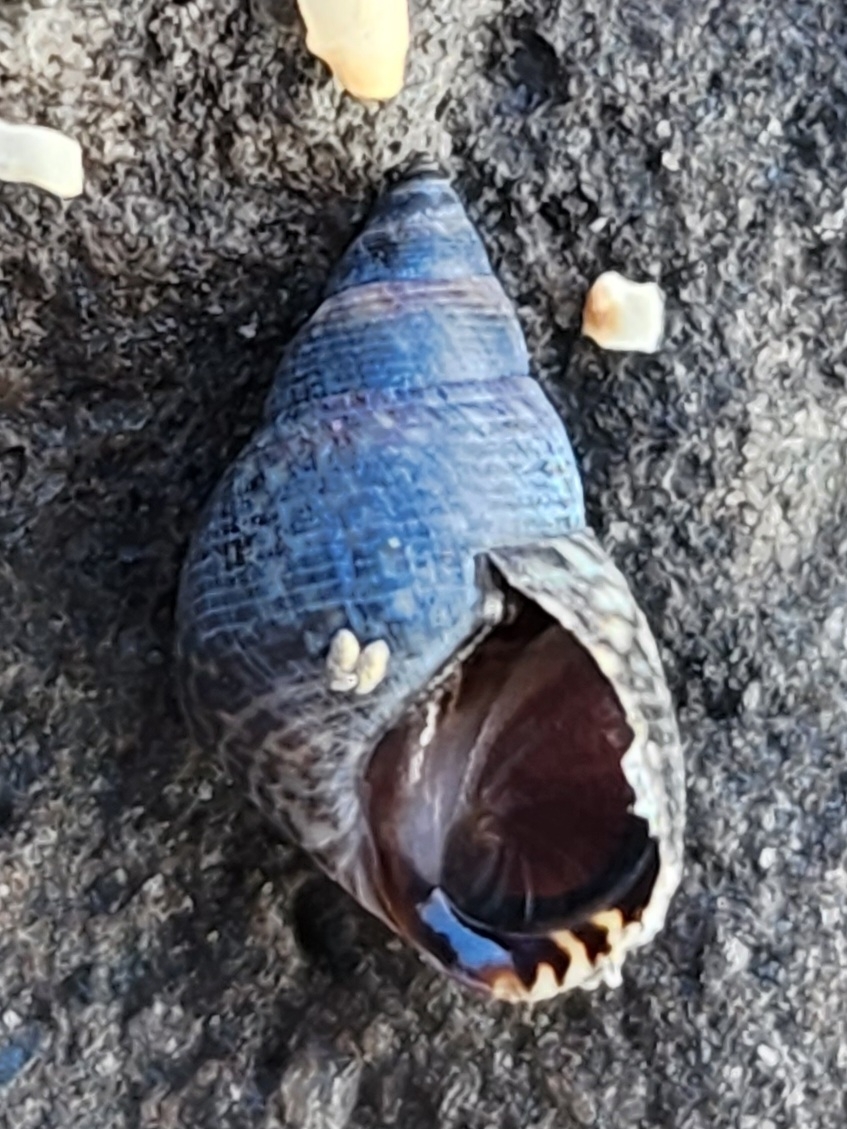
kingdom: Animalia
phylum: Mollusca
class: Gastropoda
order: Littorinimorpha
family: Littorinidae
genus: Littoraria
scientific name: Littoraria pintado
